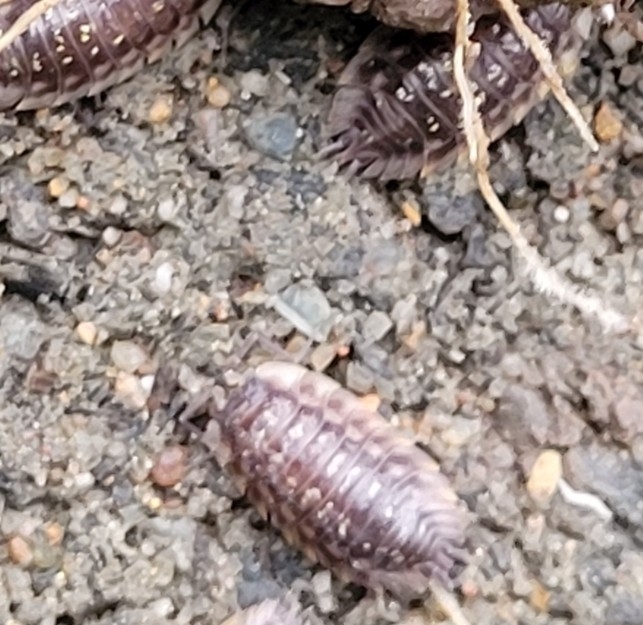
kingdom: Animalia
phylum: Arthropoda
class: Malacostraca
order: Isopoda
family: Oniscidae
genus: Oniscus
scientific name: Oniscus asellus
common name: Common shiny woodlouse
